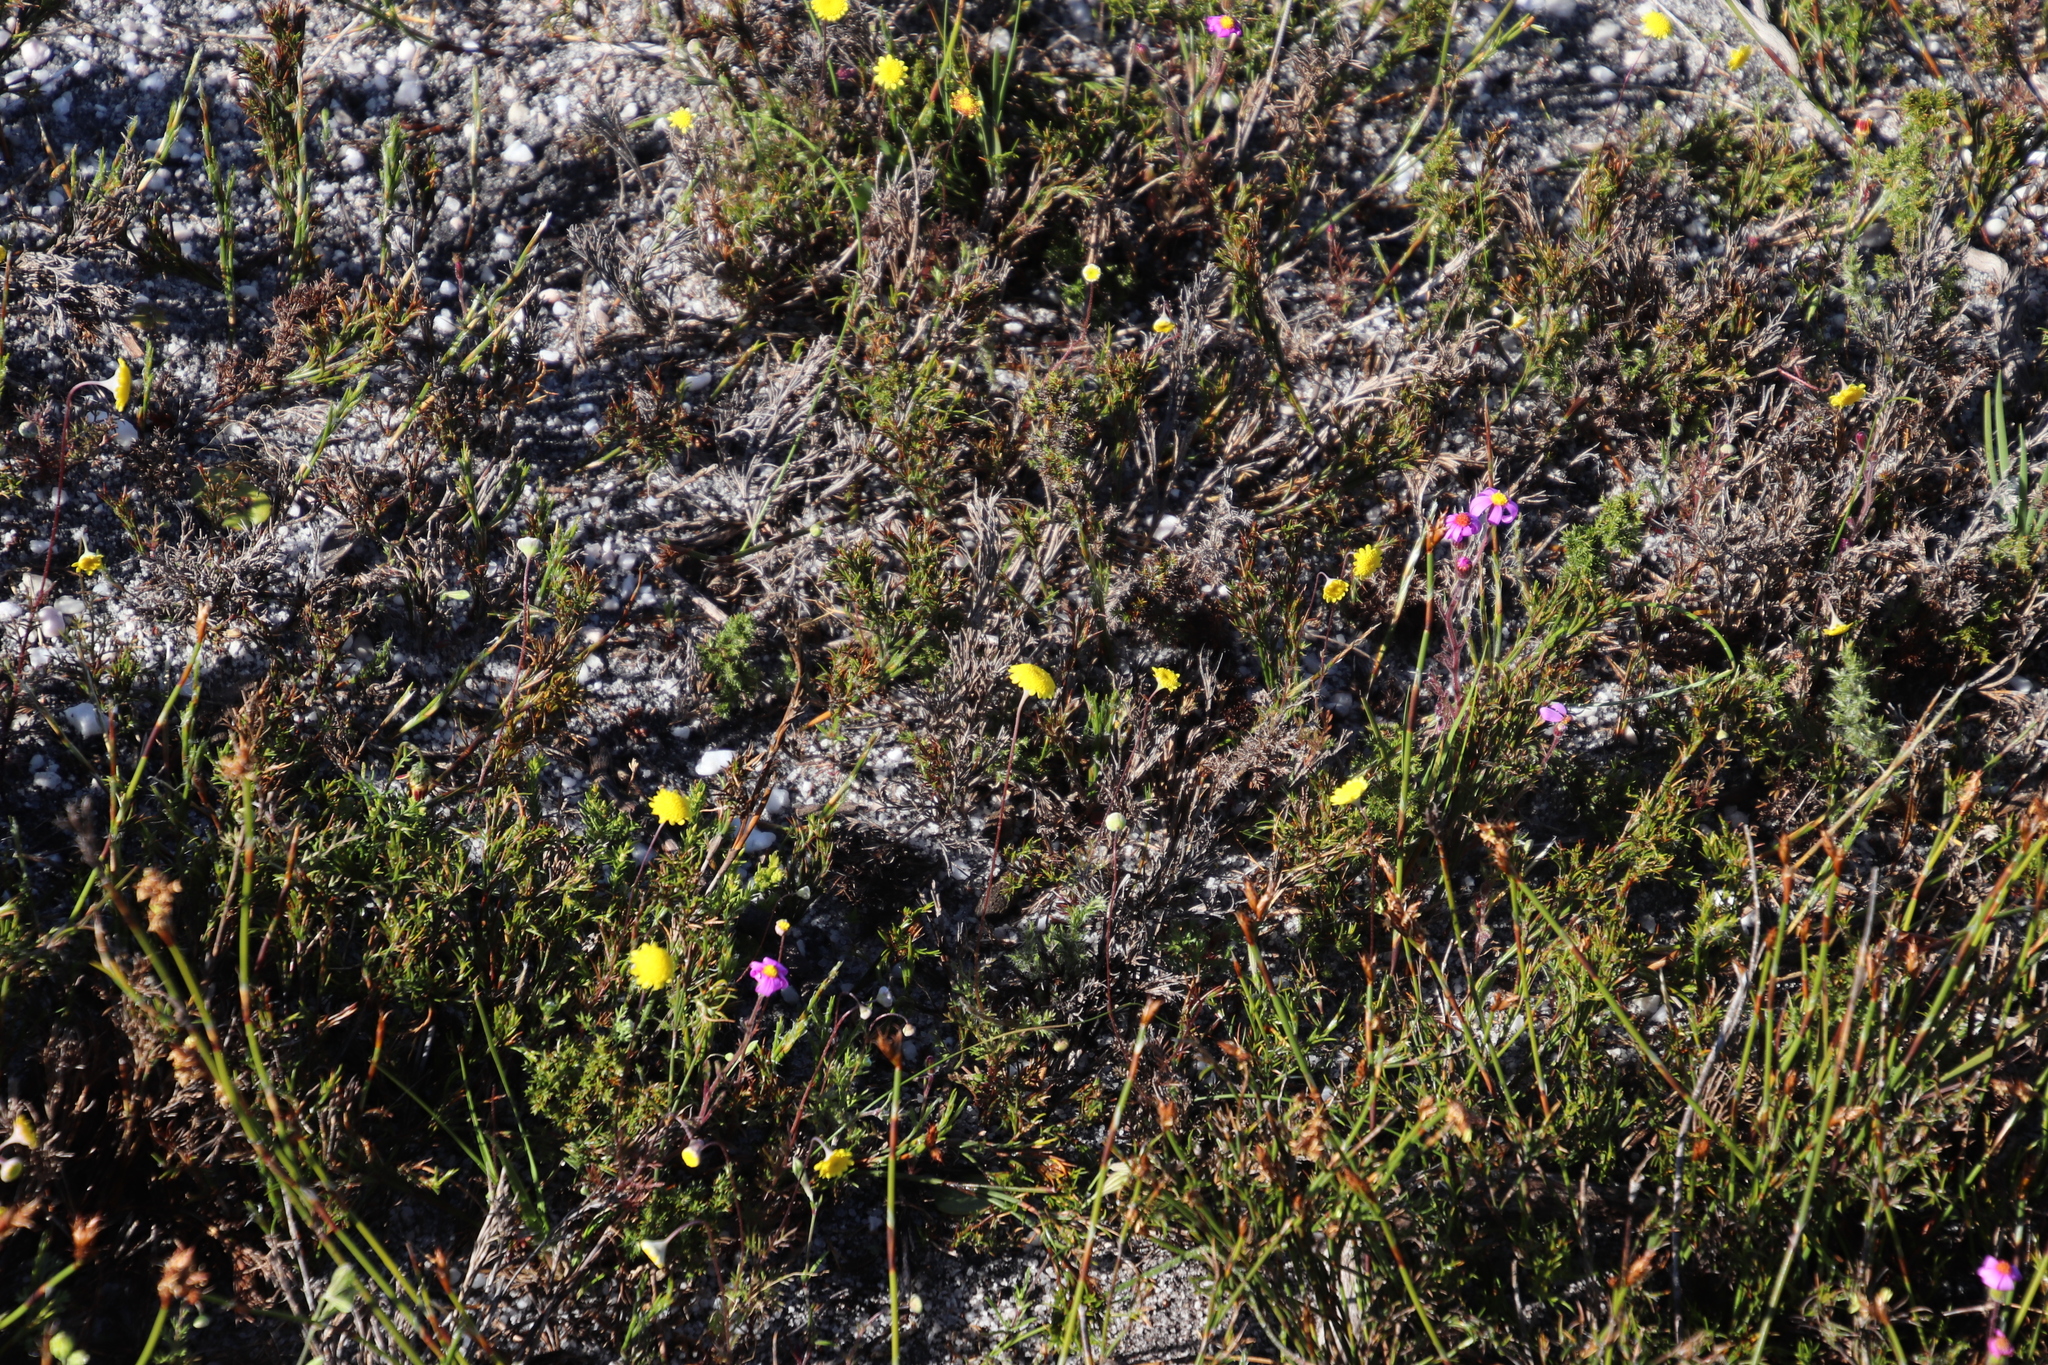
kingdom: Plantae
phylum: Tracheophyta
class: Magnoliopsida
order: Asterales
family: Asteraceae
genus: Cotula
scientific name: Cotula pruinosa
